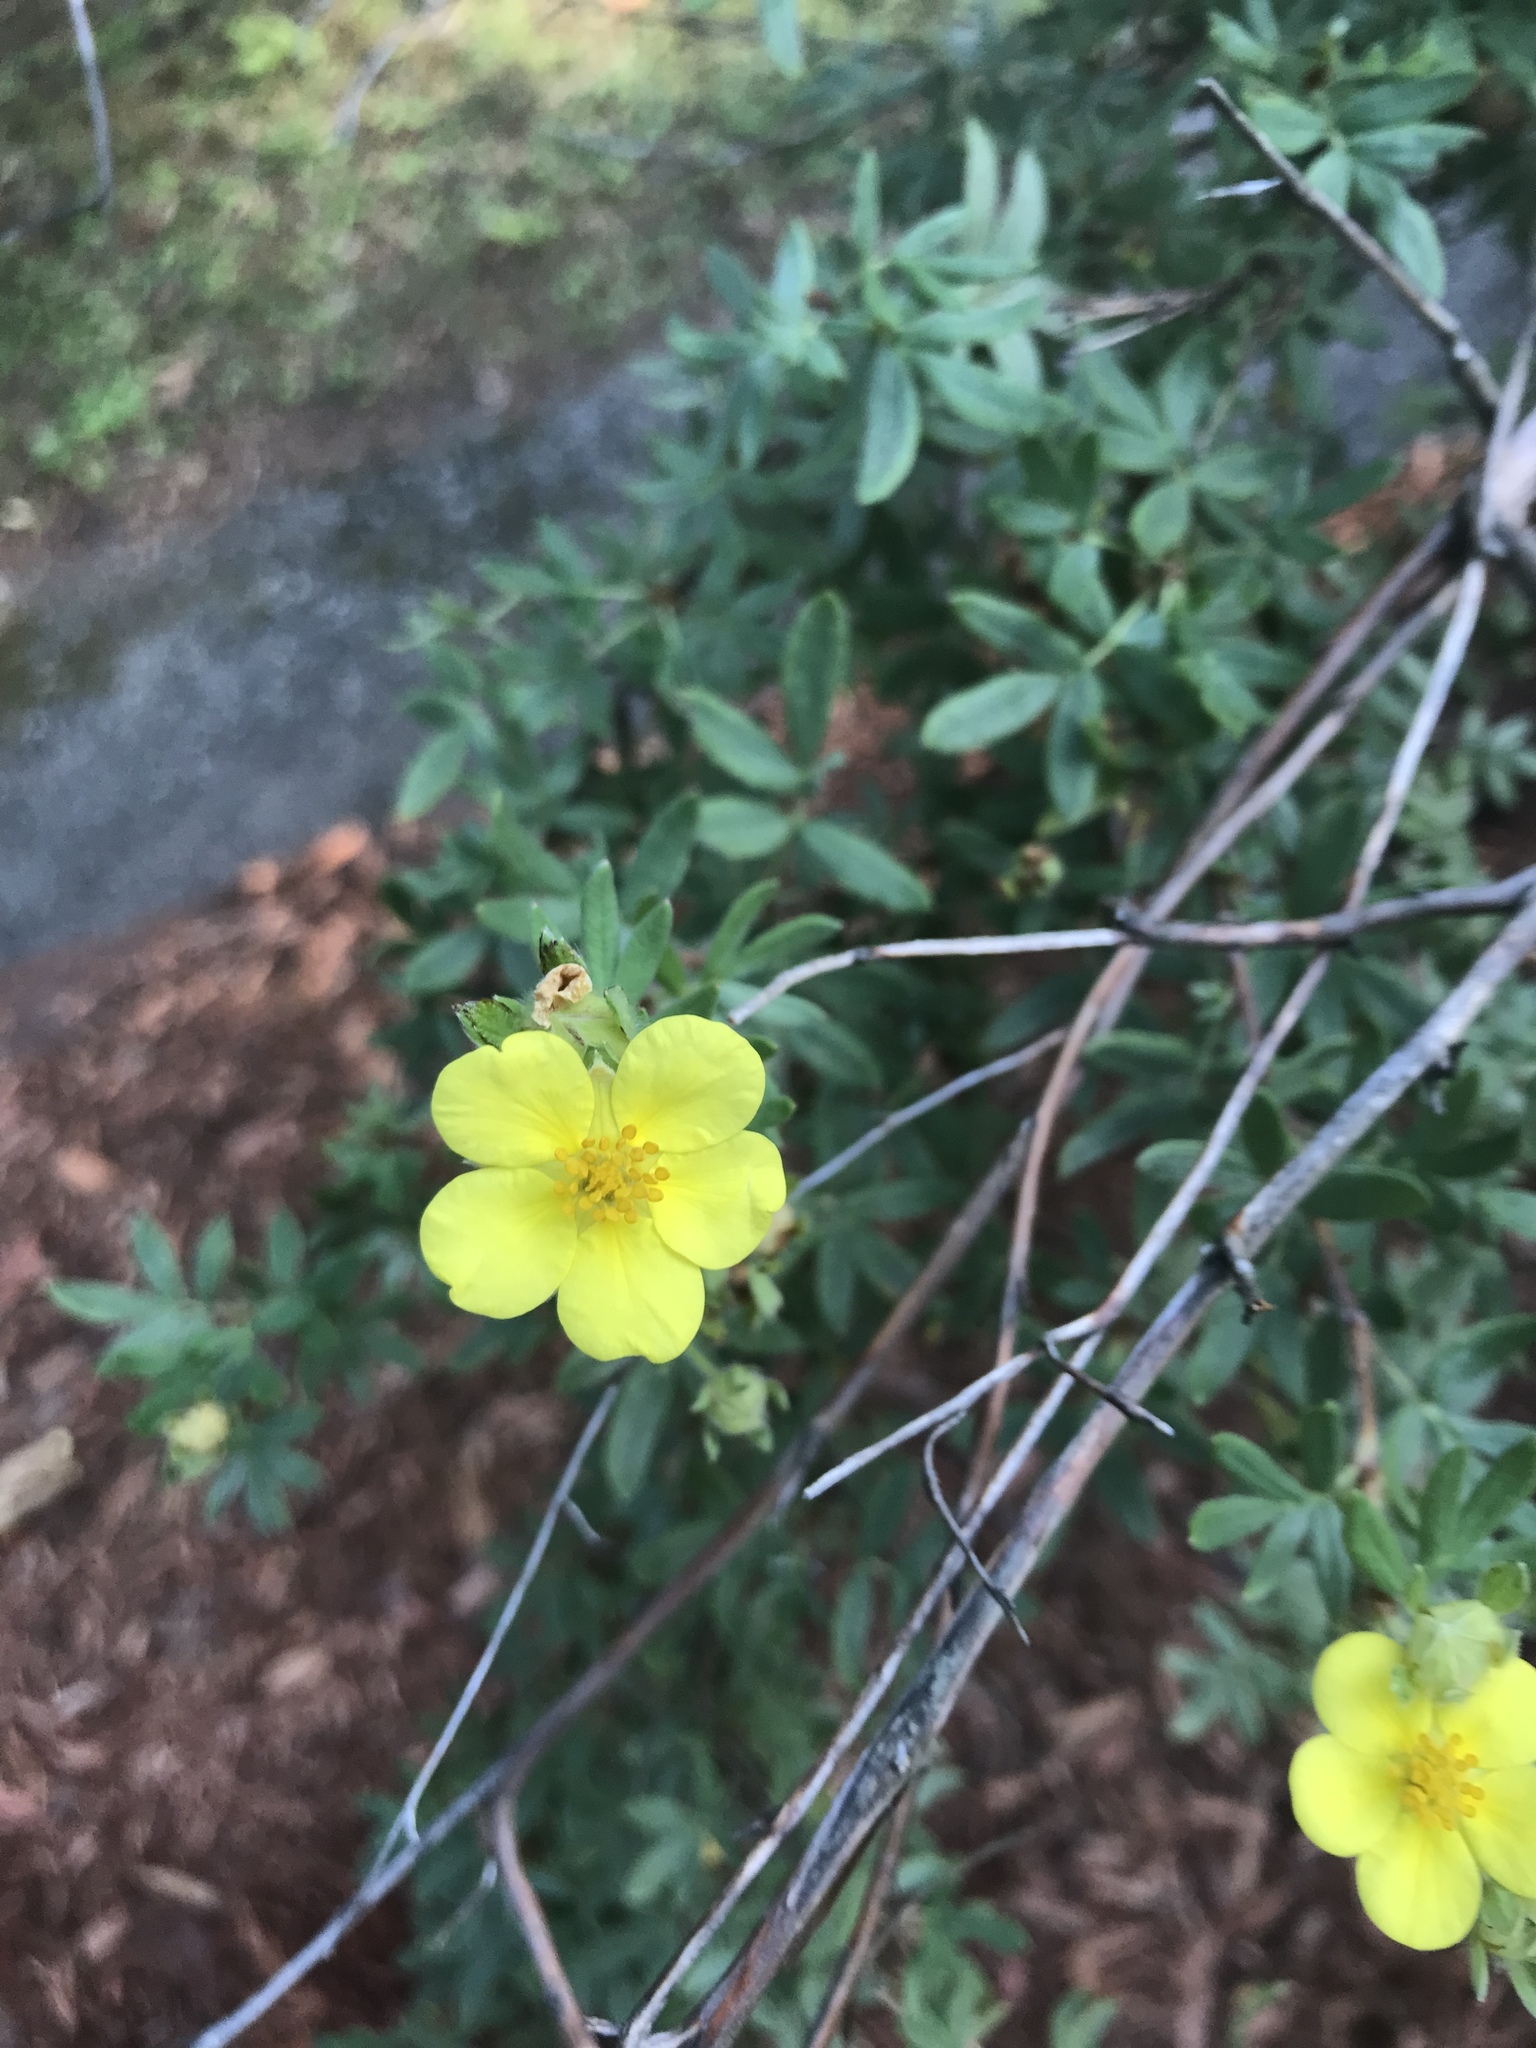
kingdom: Plantae
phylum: Tracheophyta
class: Magnoliopsida
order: Rosales
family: Rosaceae
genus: Dasiphora
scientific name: Dasiphora fruticosa
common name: Shrubby cinquefoil
